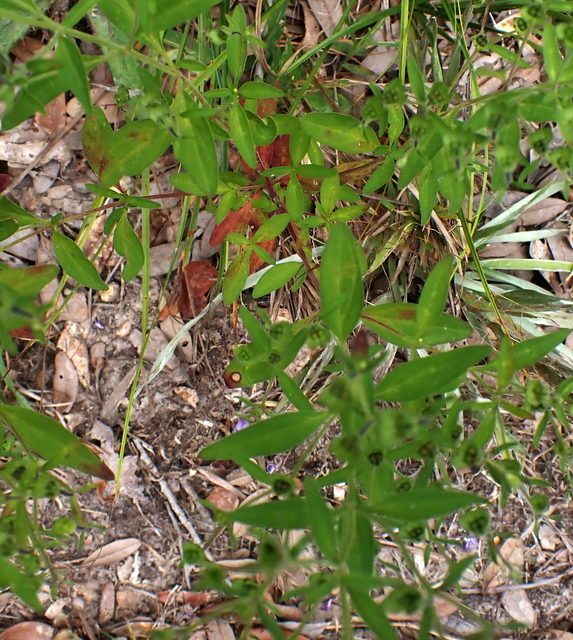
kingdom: Plantae
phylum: Tracheophyta
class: Magnoliopsida
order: Lamiales
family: Lamiaceae
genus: Trichostema
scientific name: Trichostema dichotomum
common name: Bastard pennyroyal
